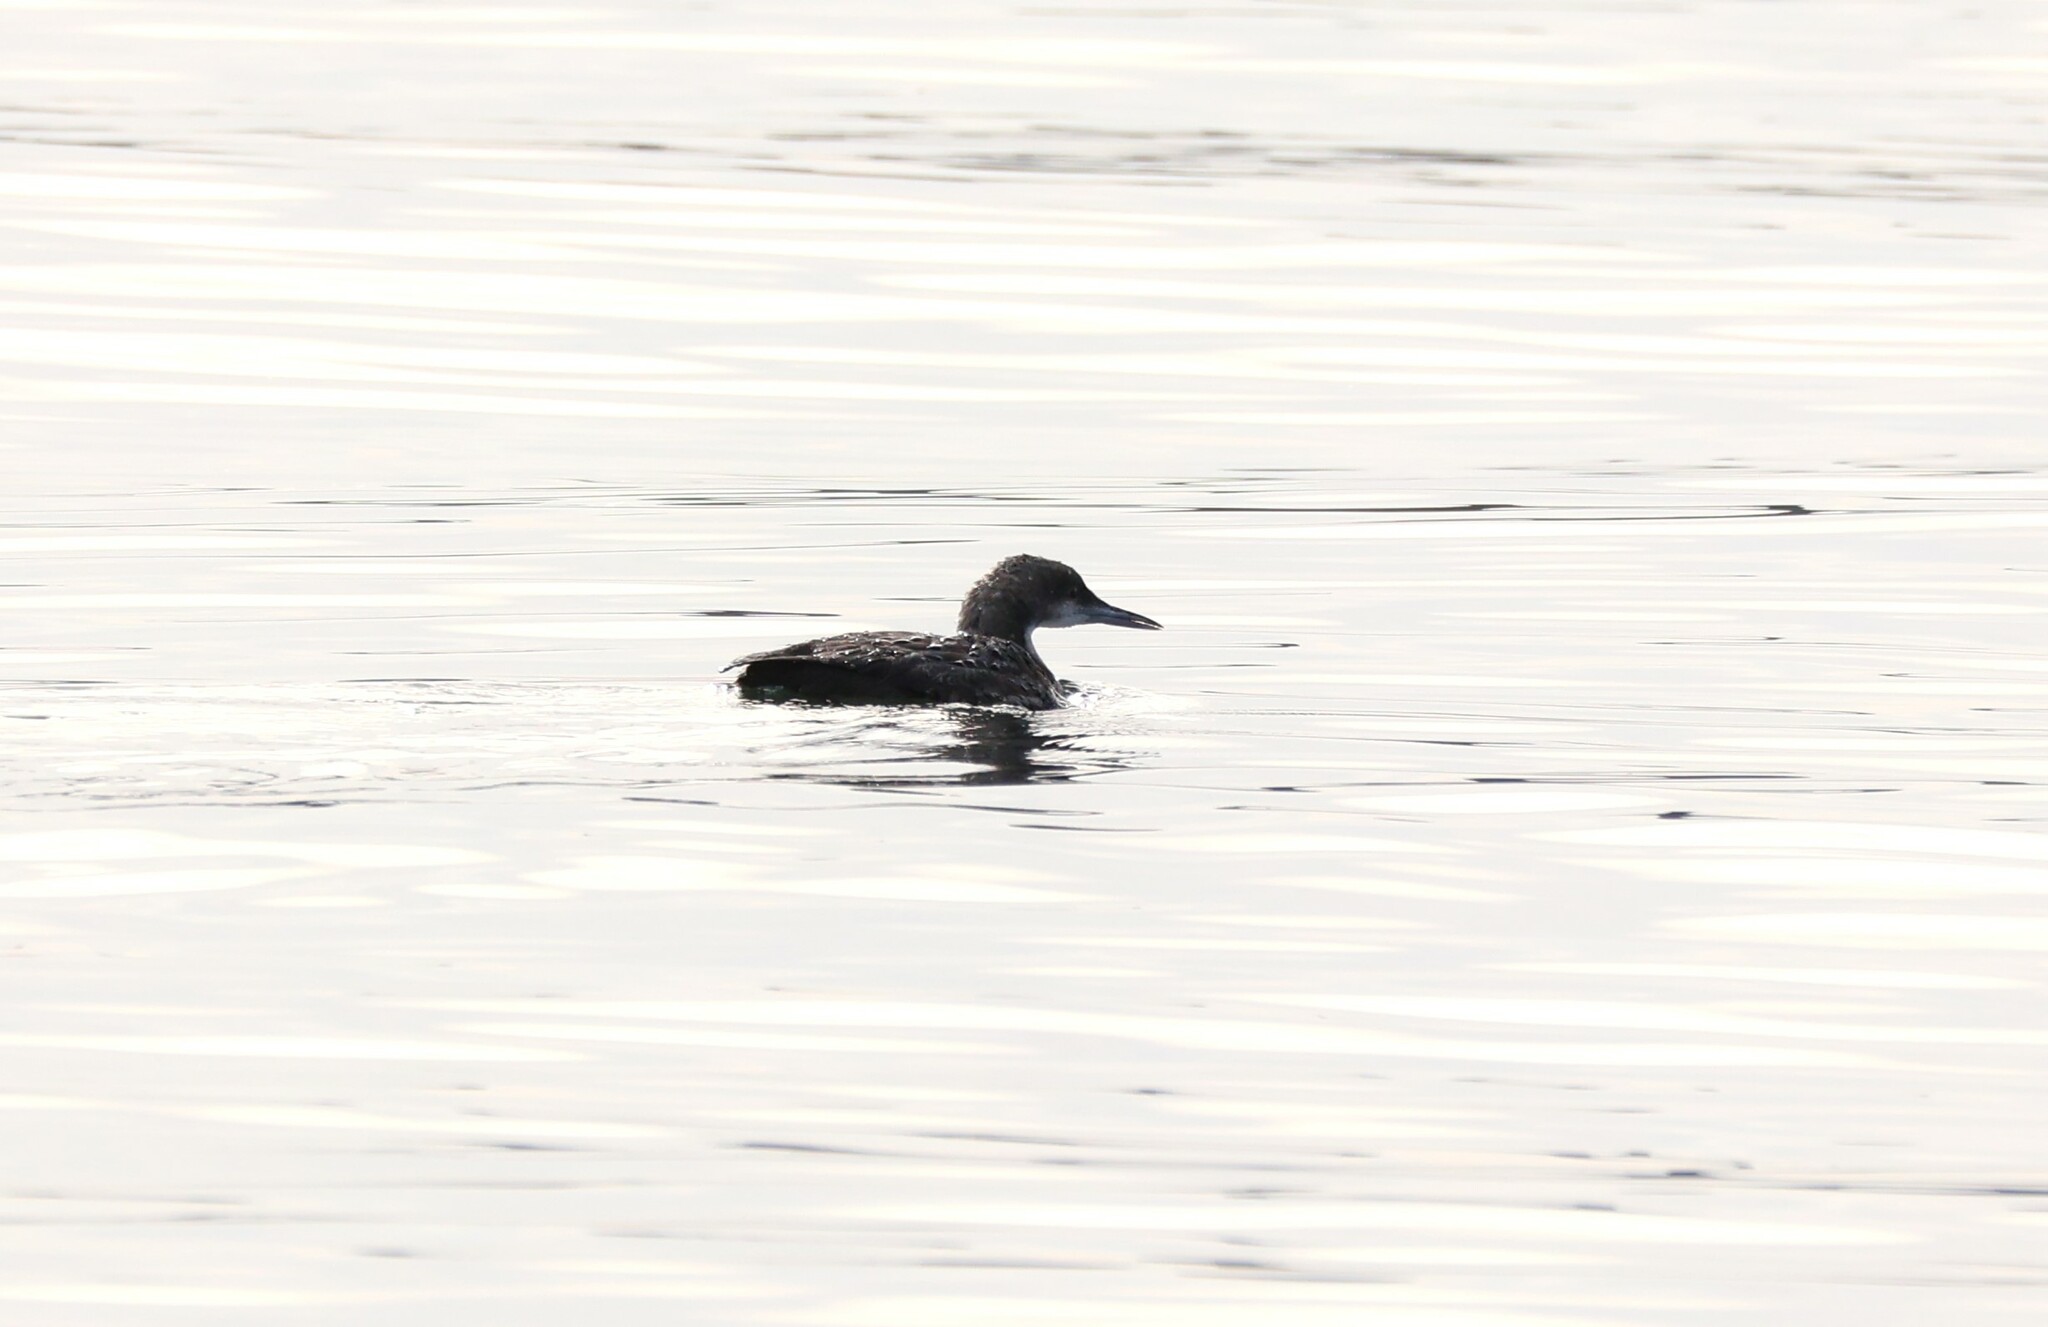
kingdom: Animalia
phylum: Chordata
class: Aves
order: Gaviiformes
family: Gaviidae
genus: Gavia
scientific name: Gavia pacifica
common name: Pacific loon
